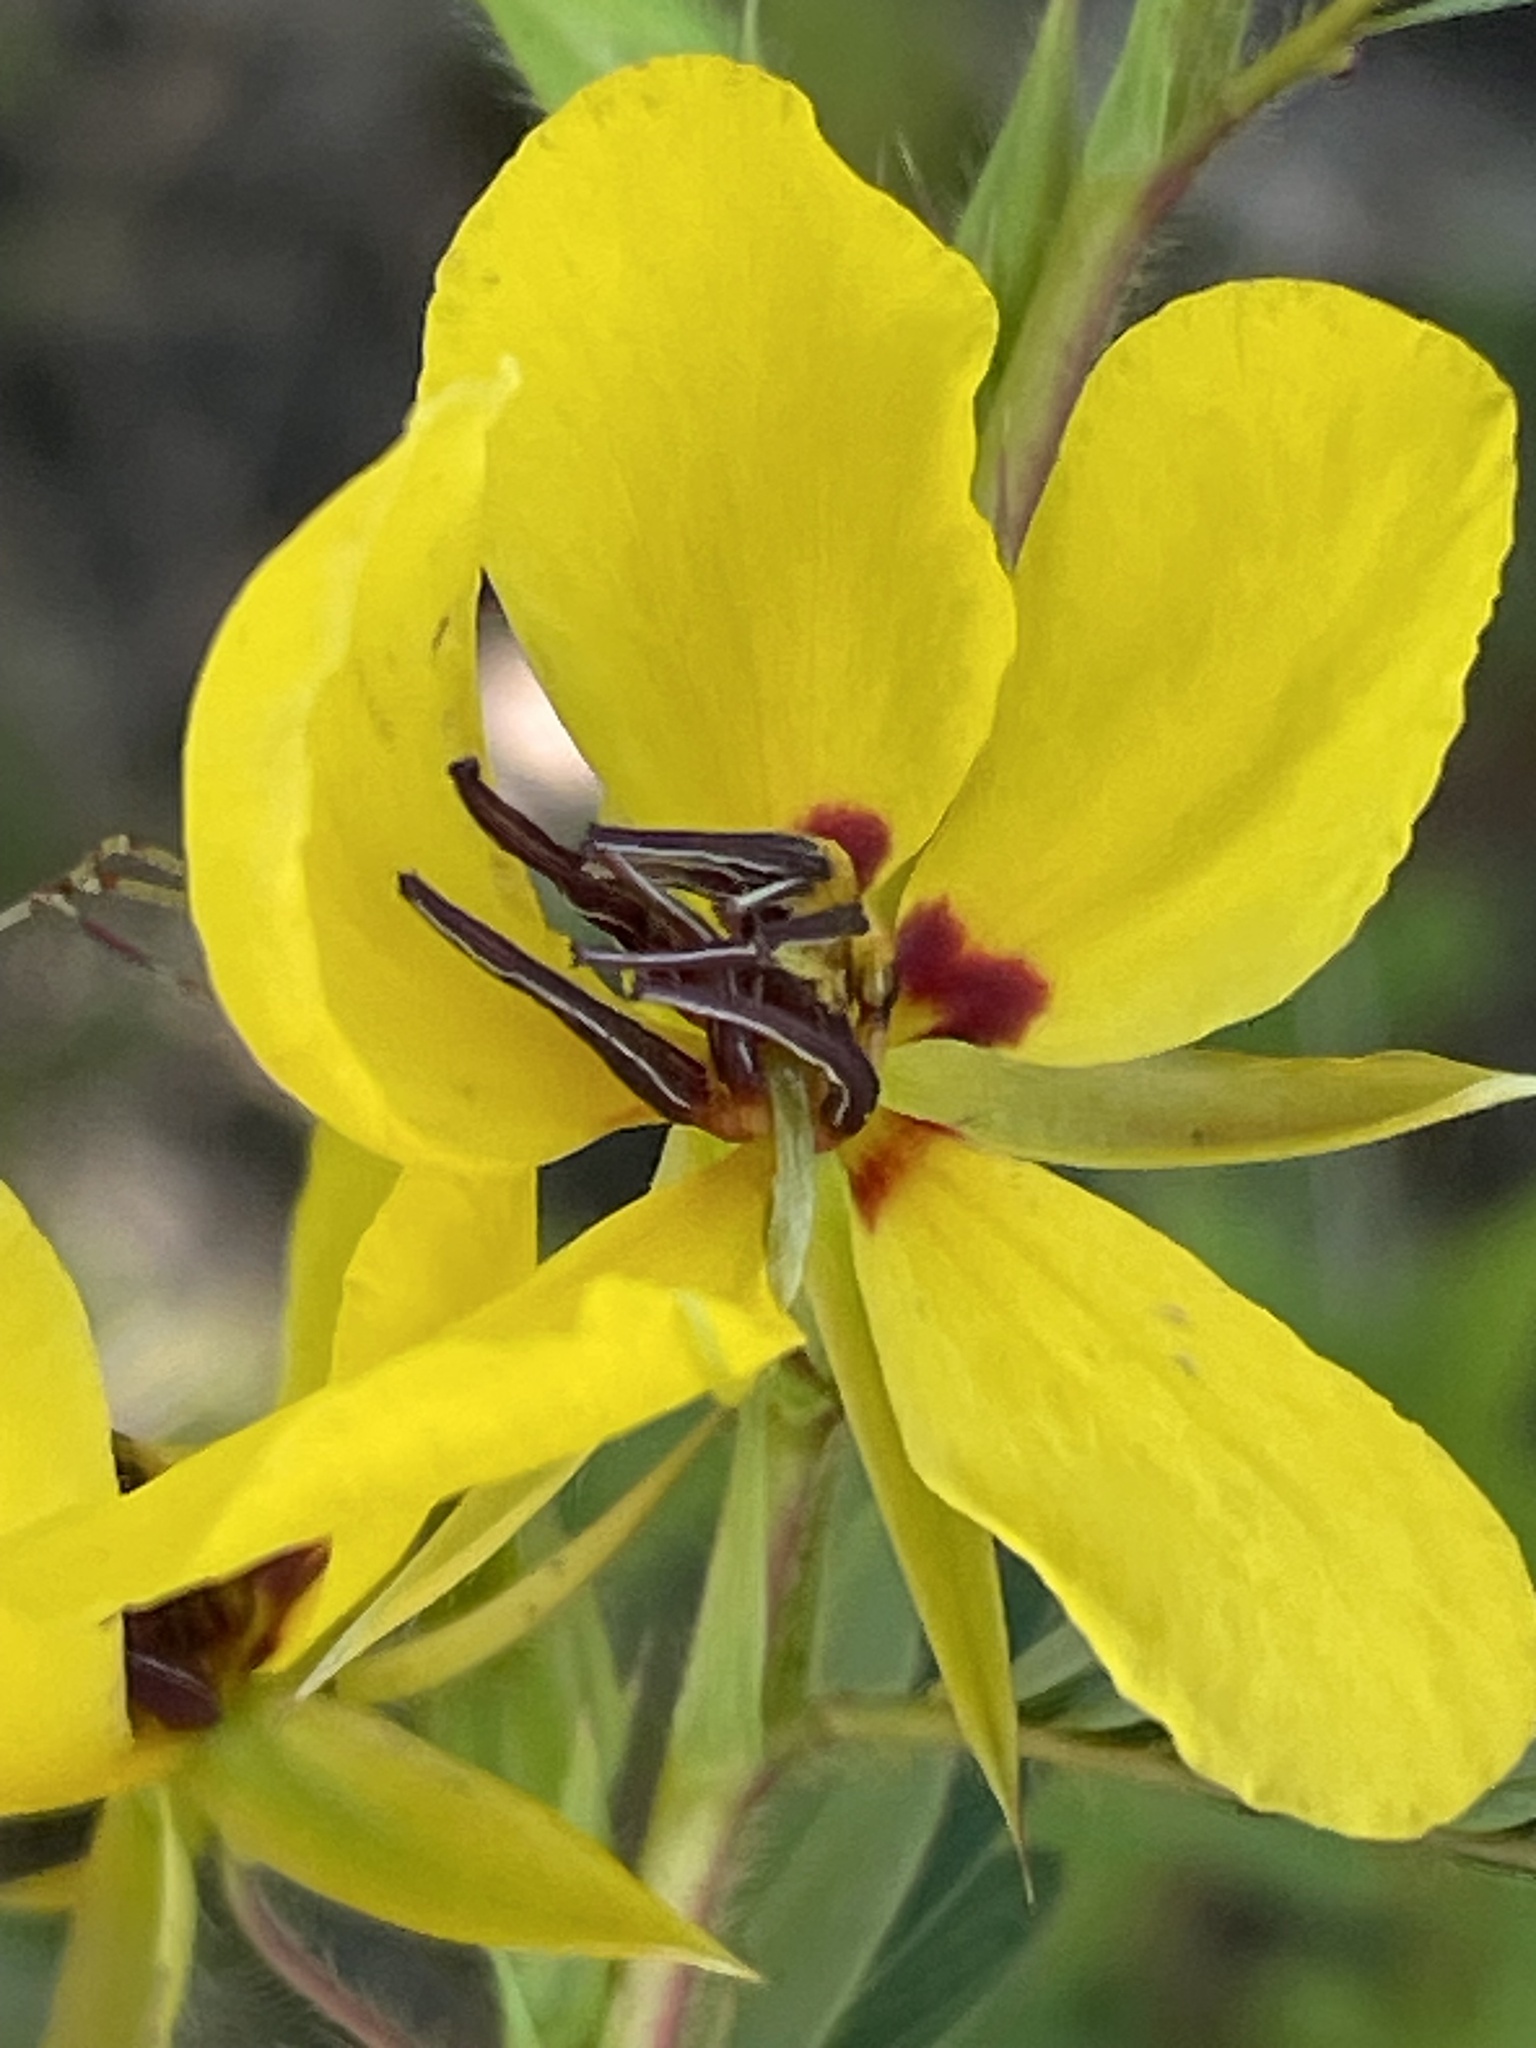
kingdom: Plantae
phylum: Tracheophyta
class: Magnoliopsida
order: Fabales
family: Fabaceae
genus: Chamaecrista
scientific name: Chamaecrista fasciculata
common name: Golden cassia
